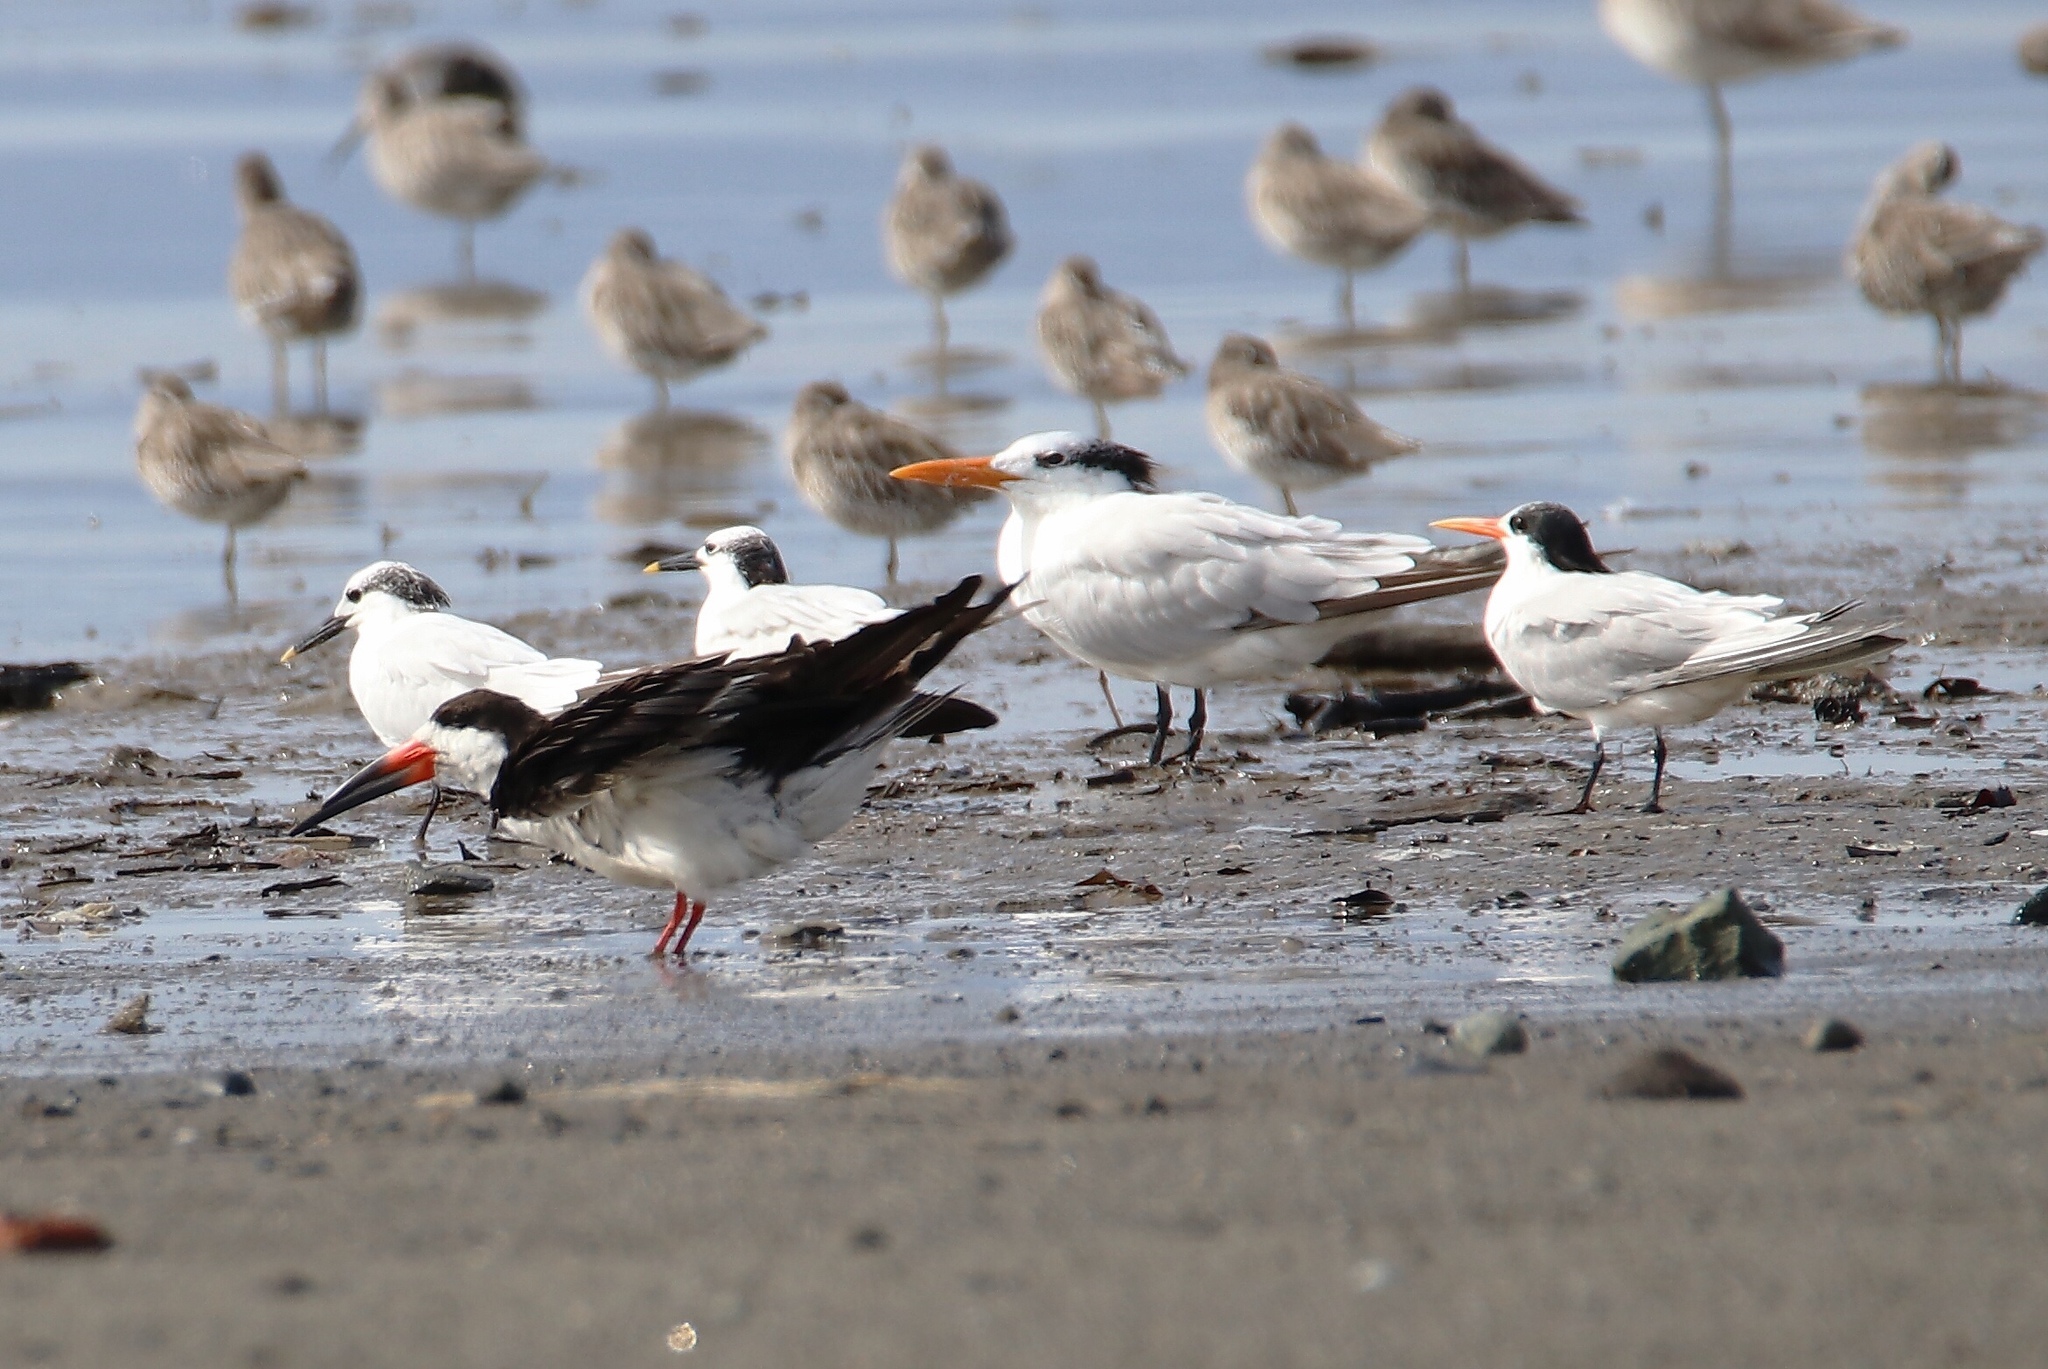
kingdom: Animalia
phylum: Chordata
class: Aves
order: Charadriiformes
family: Laridae
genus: Thalasseus
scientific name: Thalasseus maximus
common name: Royal tern
